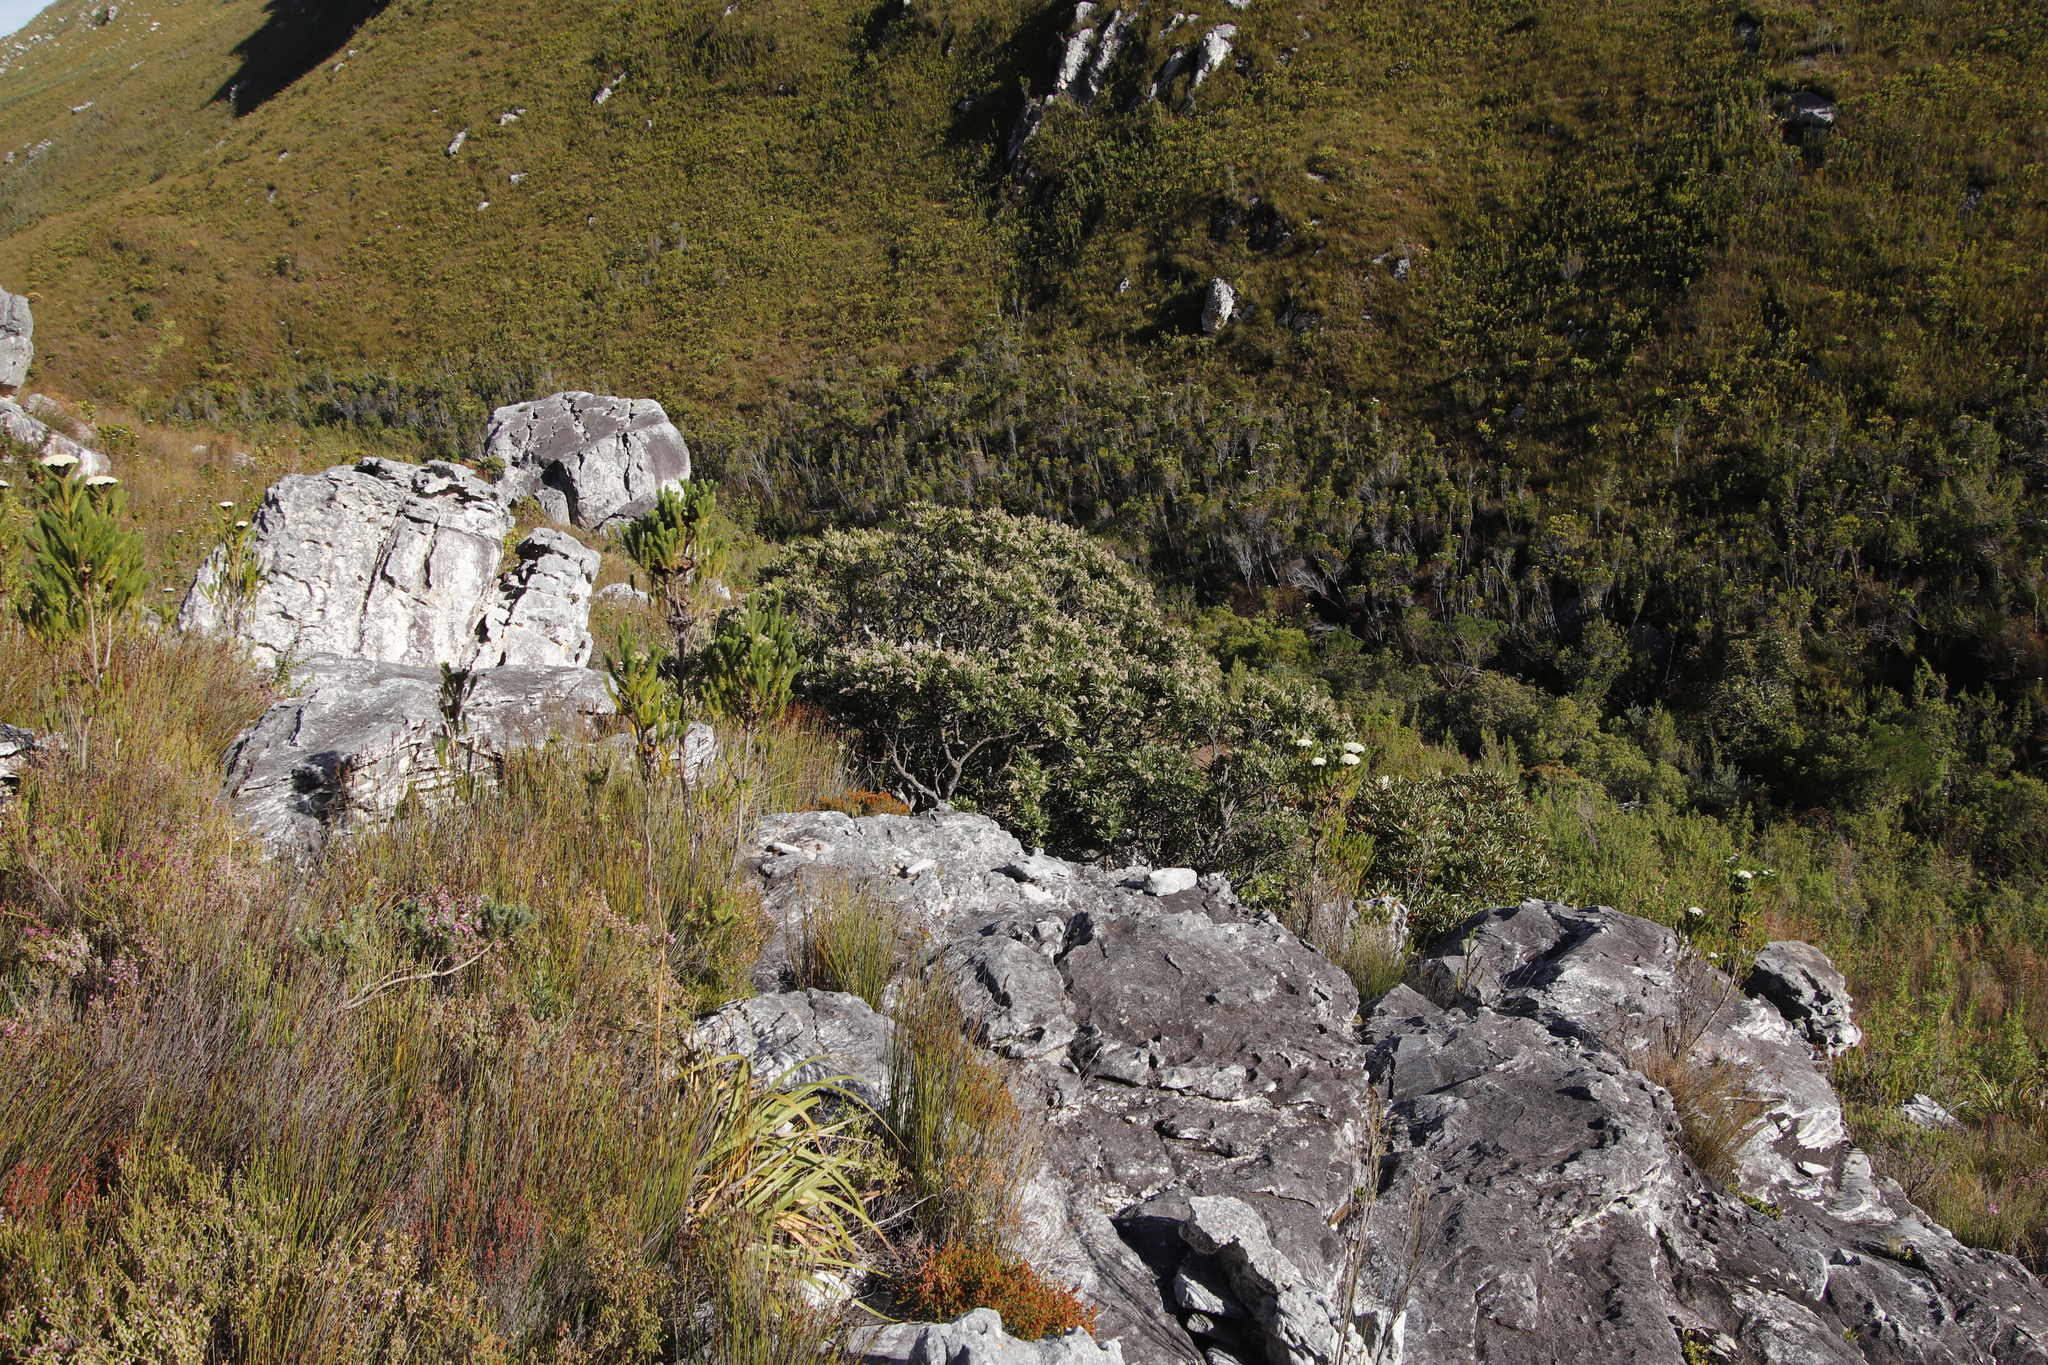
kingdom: Plantae
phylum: Tracheophyta
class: Magnoliopsida
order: Oxalidales
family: Cunoniaceae
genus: Cunonia
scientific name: Cunonia capensis
